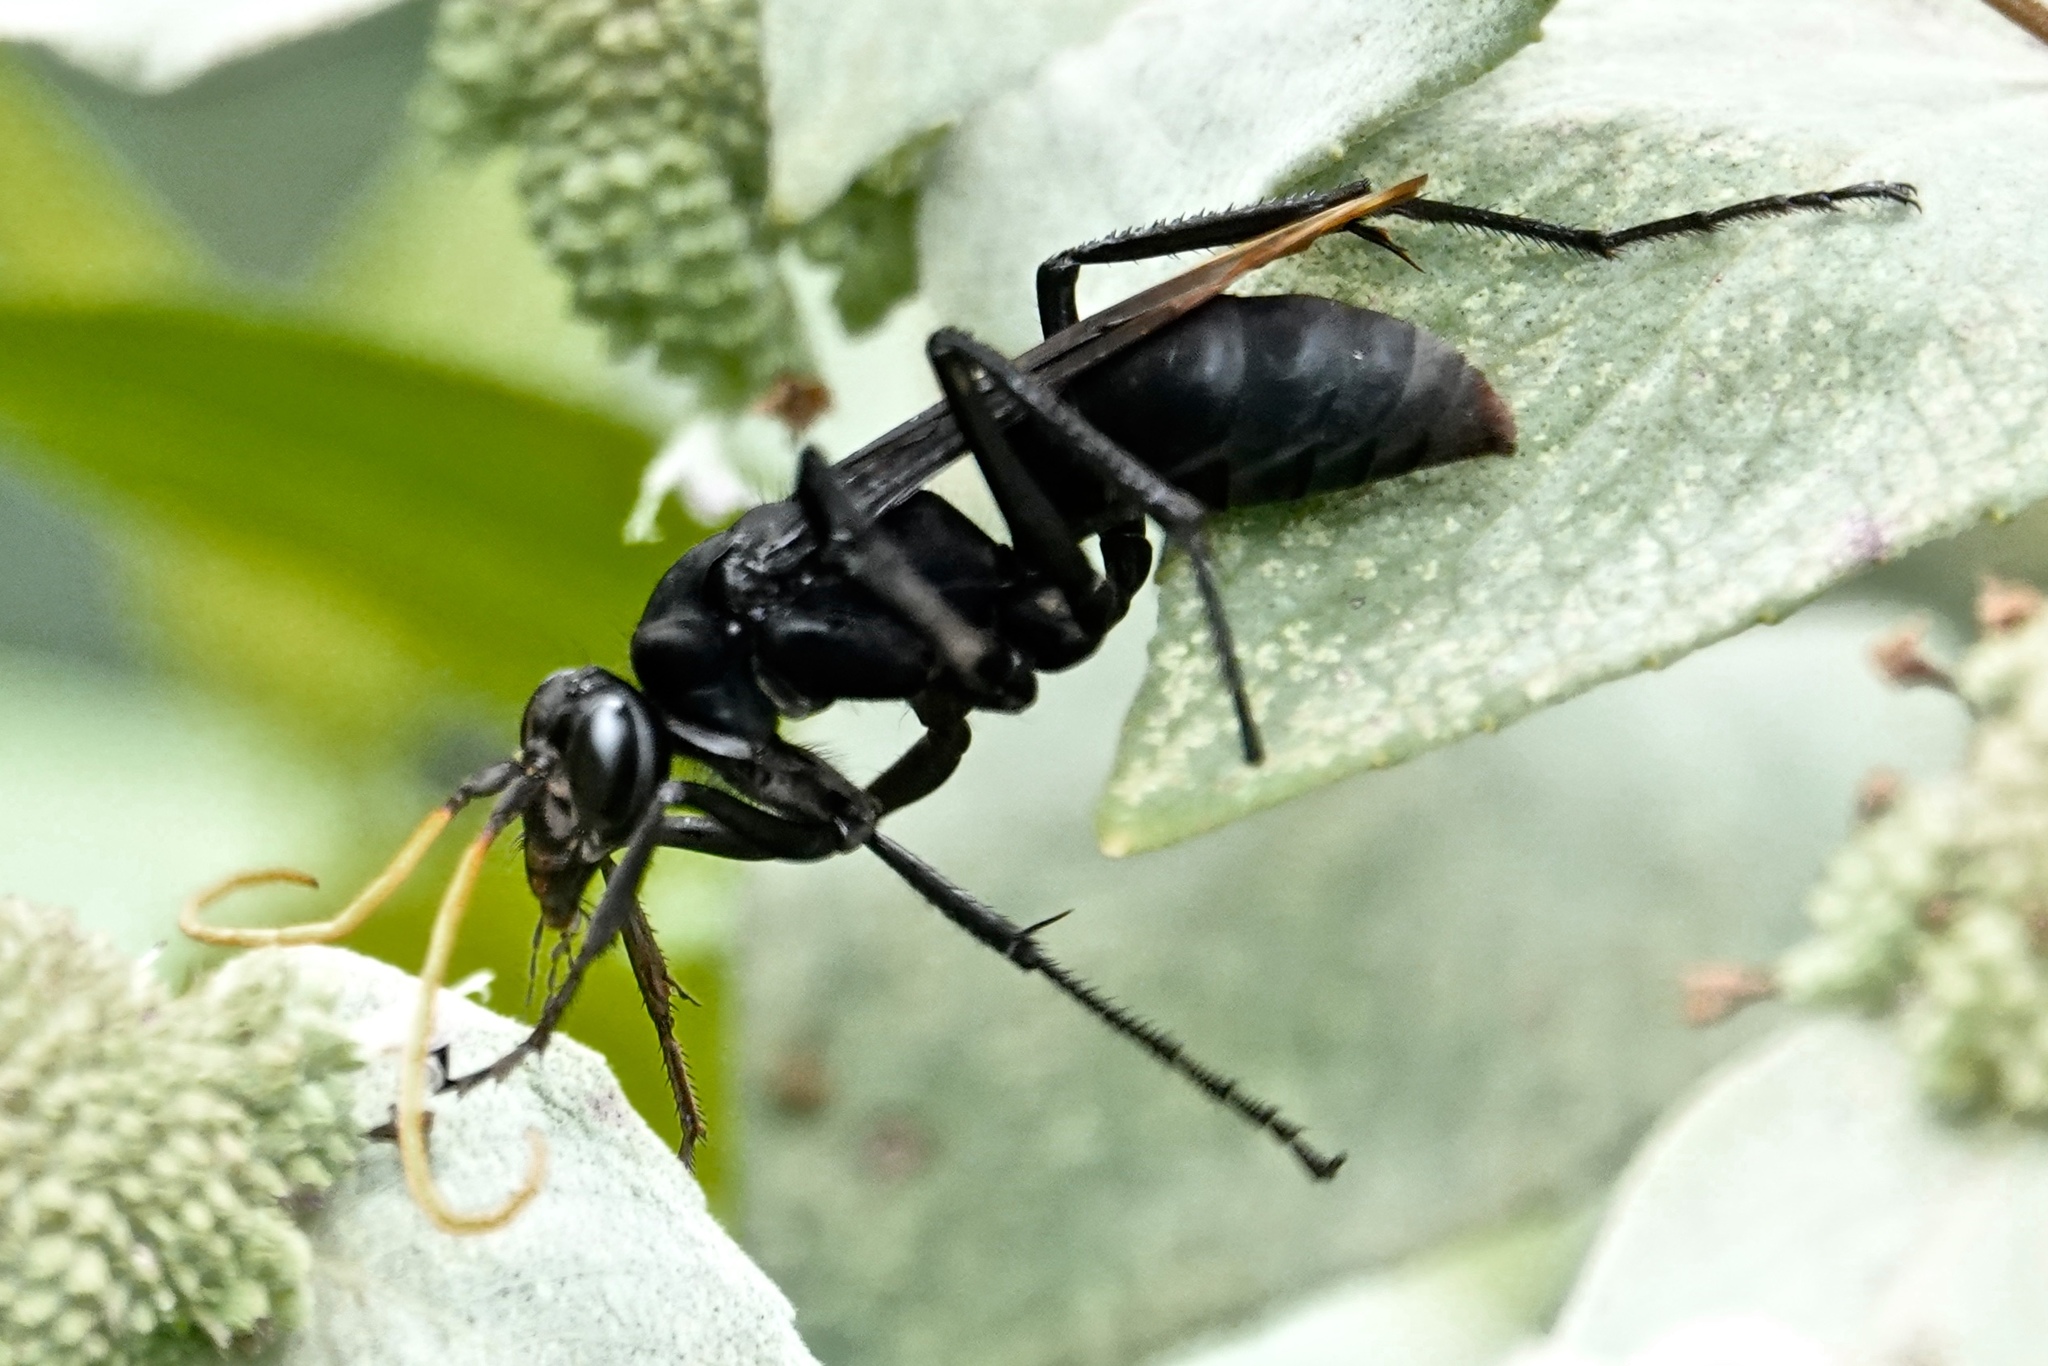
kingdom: Animalia
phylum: Arthropoda
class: Insecta
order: Hymenoptera
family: Pompilidae
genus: Entypus
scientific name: Entypus unifasciatus
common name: Eastern tawny-horned spider wasp
